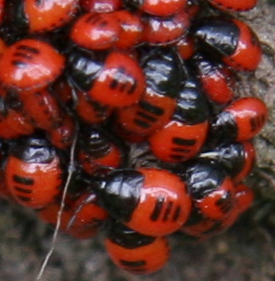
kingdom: Animalia
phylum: Arthropoda
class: Insecta
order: Hemiptera
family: Cydnidae
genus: Sehirus
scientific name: Sehirus cinctus
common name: White-margined burrower bug
